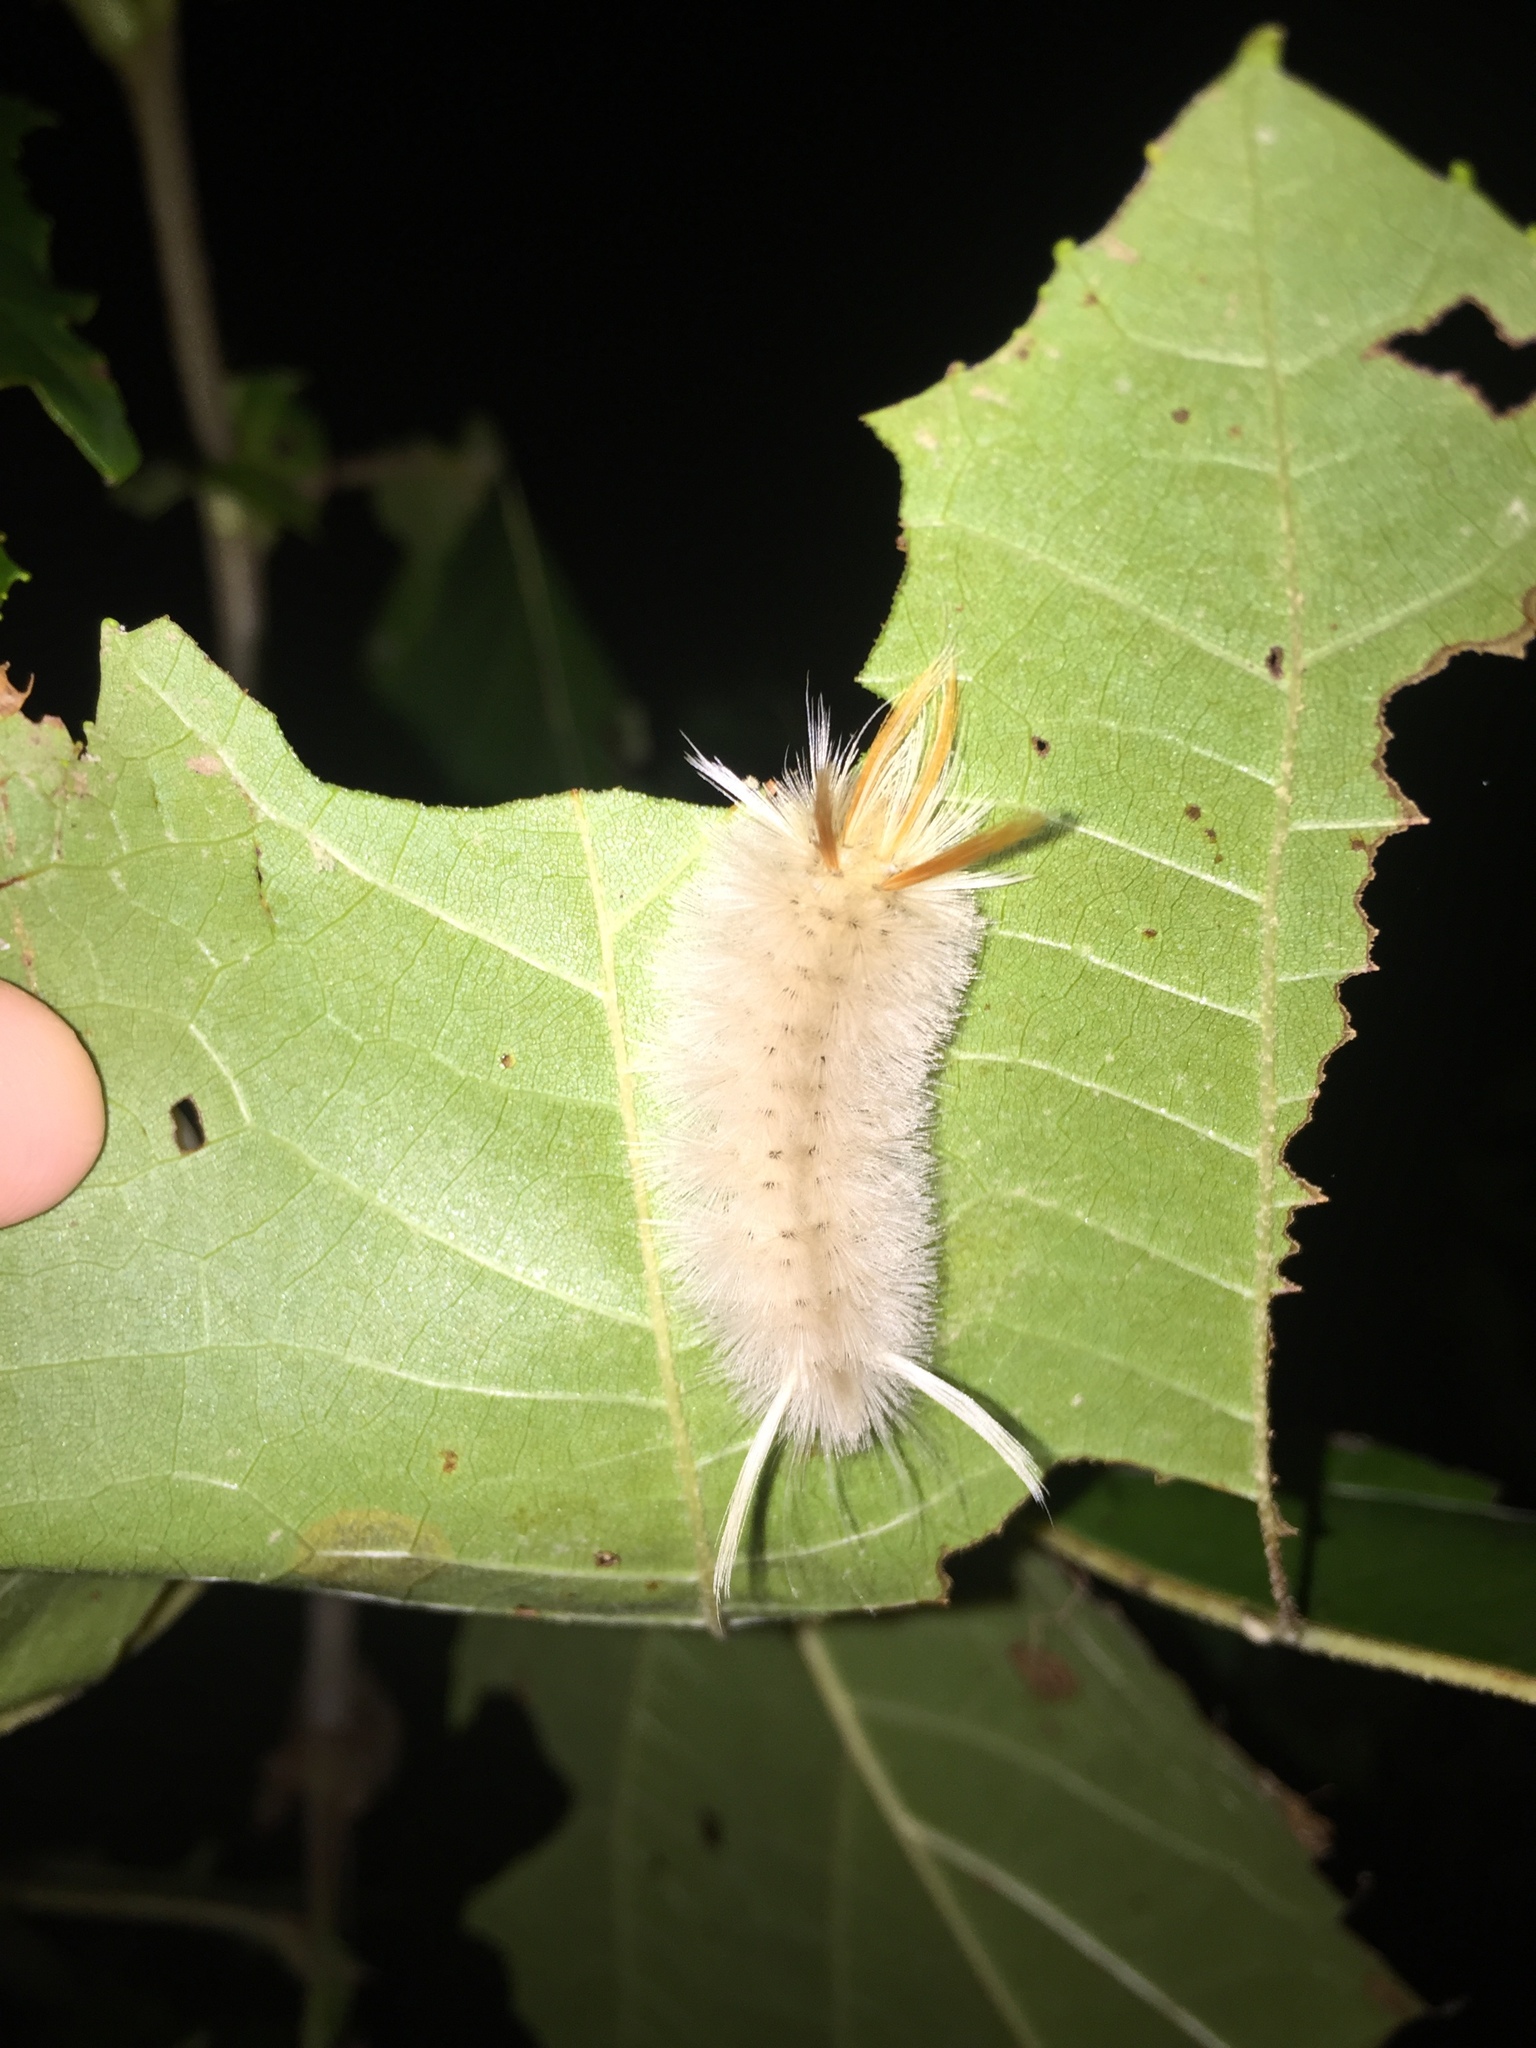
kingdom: Animalia
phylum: Arthropoda
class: Insecta
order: Lepidoptera
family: Erebidae
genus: Halysidota
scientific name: Halysidota harrisii
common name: Sycamore tussock moth
